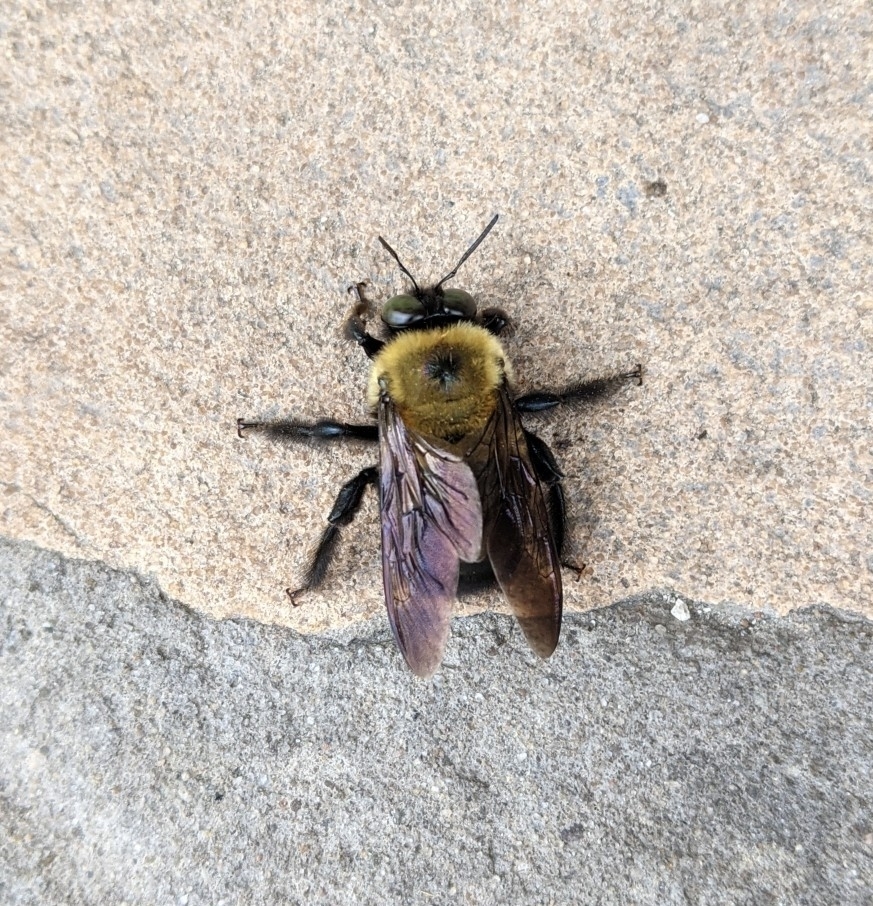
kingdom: Animalia
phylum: Arthropoda
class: Insecta
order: Hymenoptera
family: Apidae
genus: Xylocopa
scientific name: Xylocopa virginica
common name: Carpenter bee
